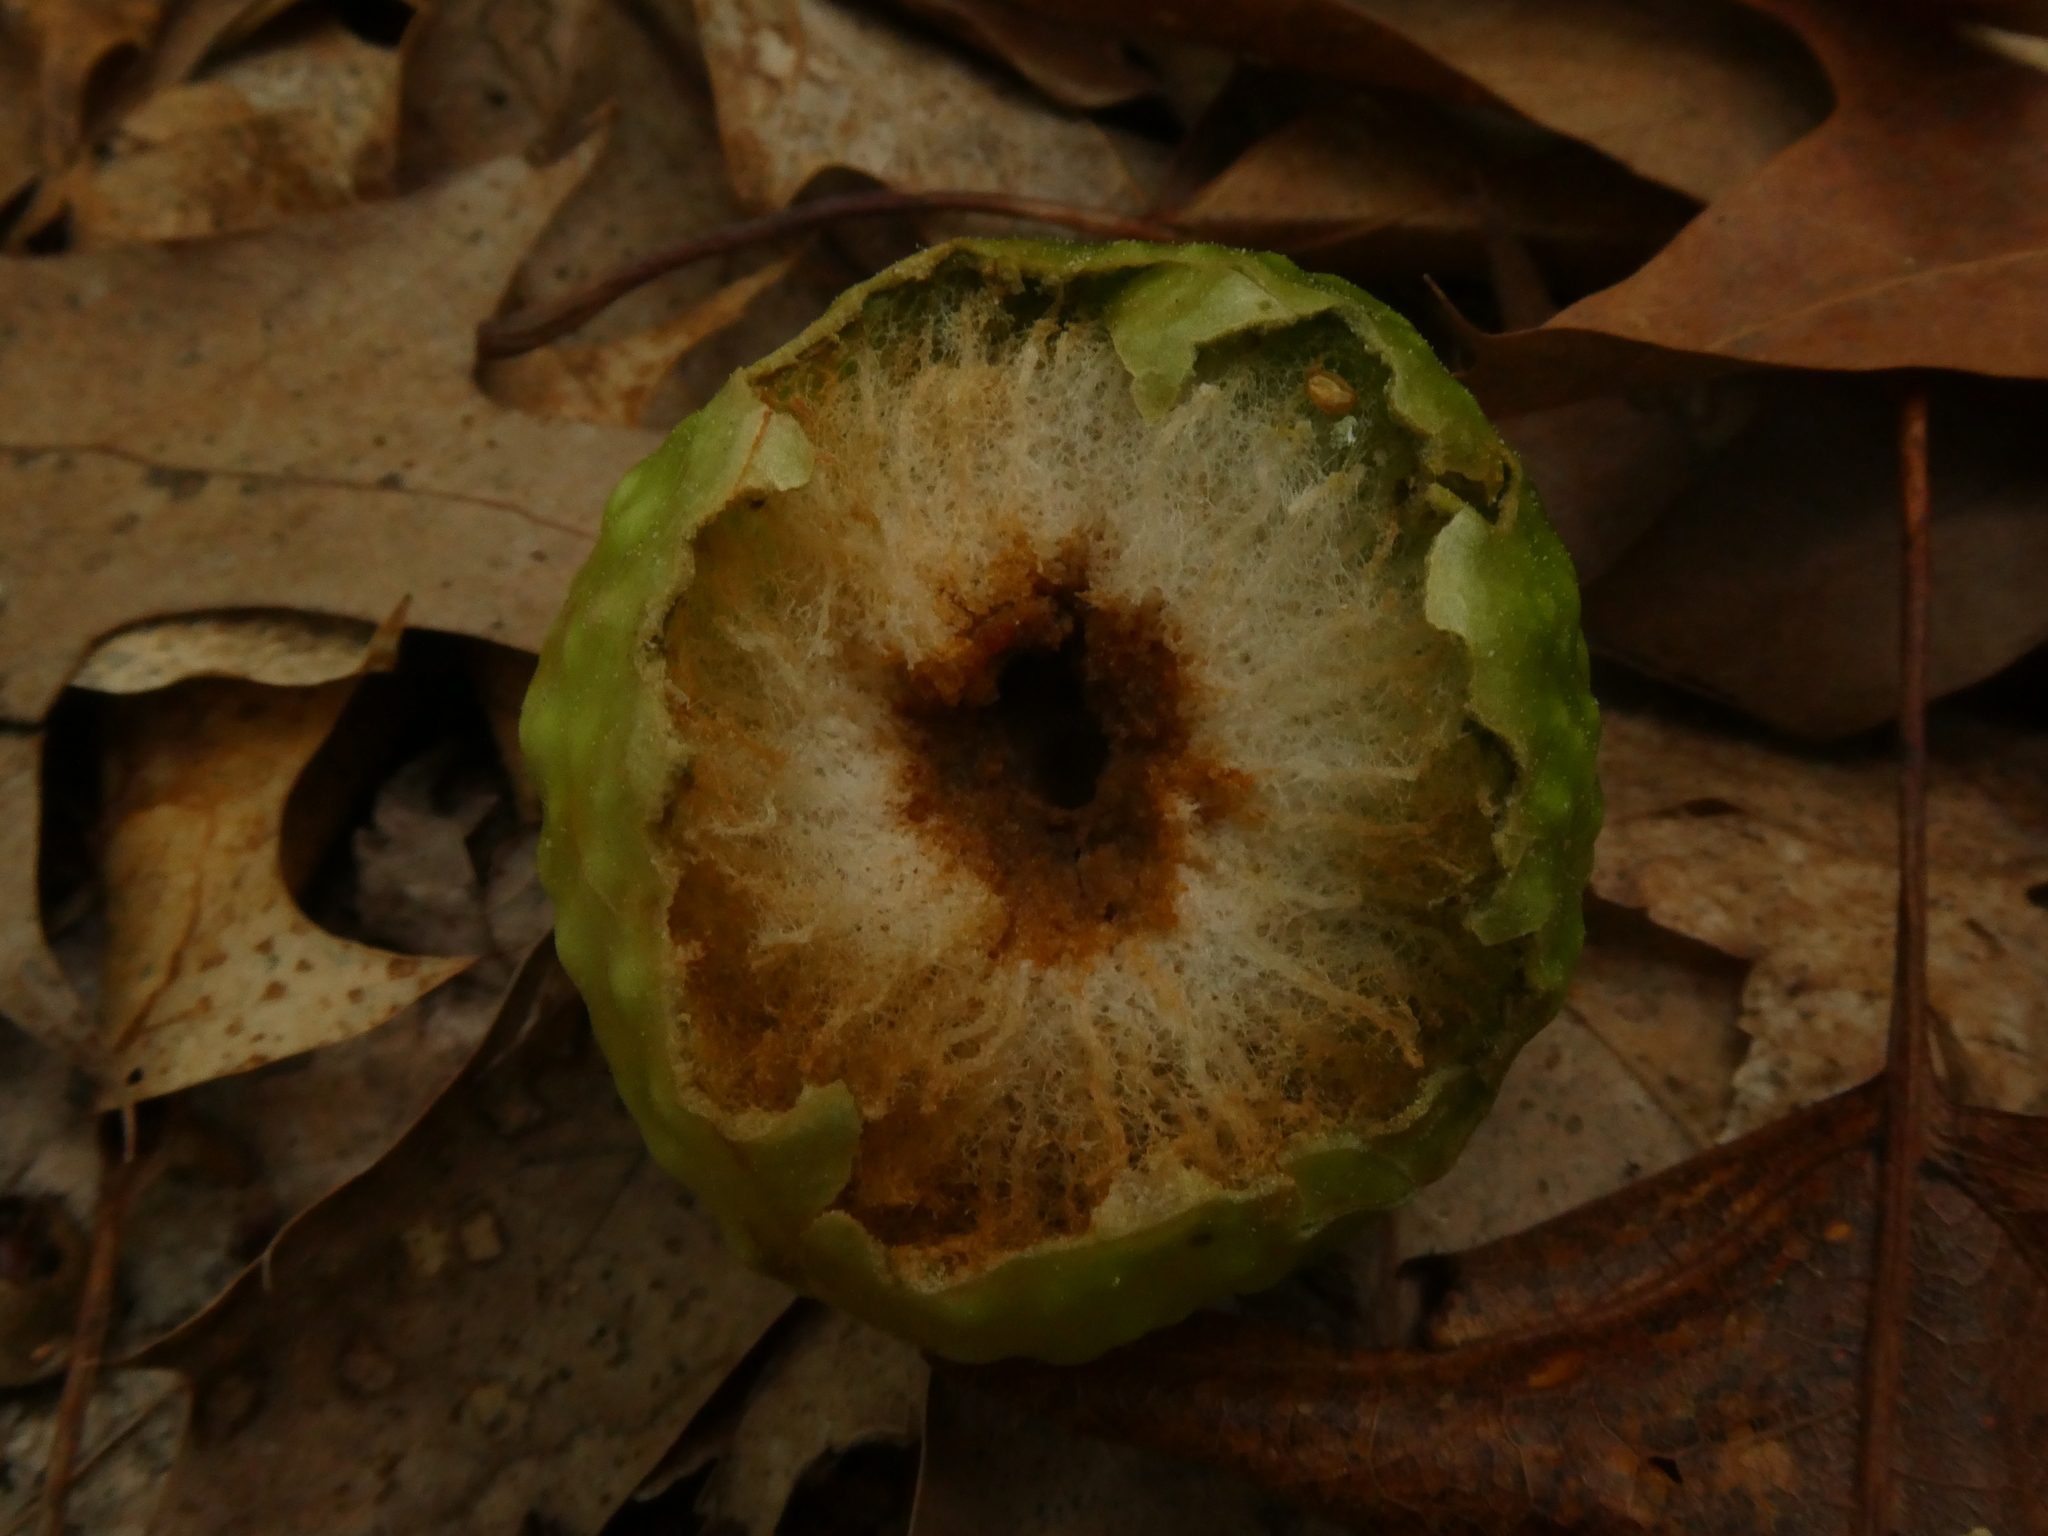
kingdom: Animalia
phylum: Arthropoda
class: Insecta
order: Hymenoptera
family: Cynipidae
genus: Amphibolips
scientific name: Amphibolips
